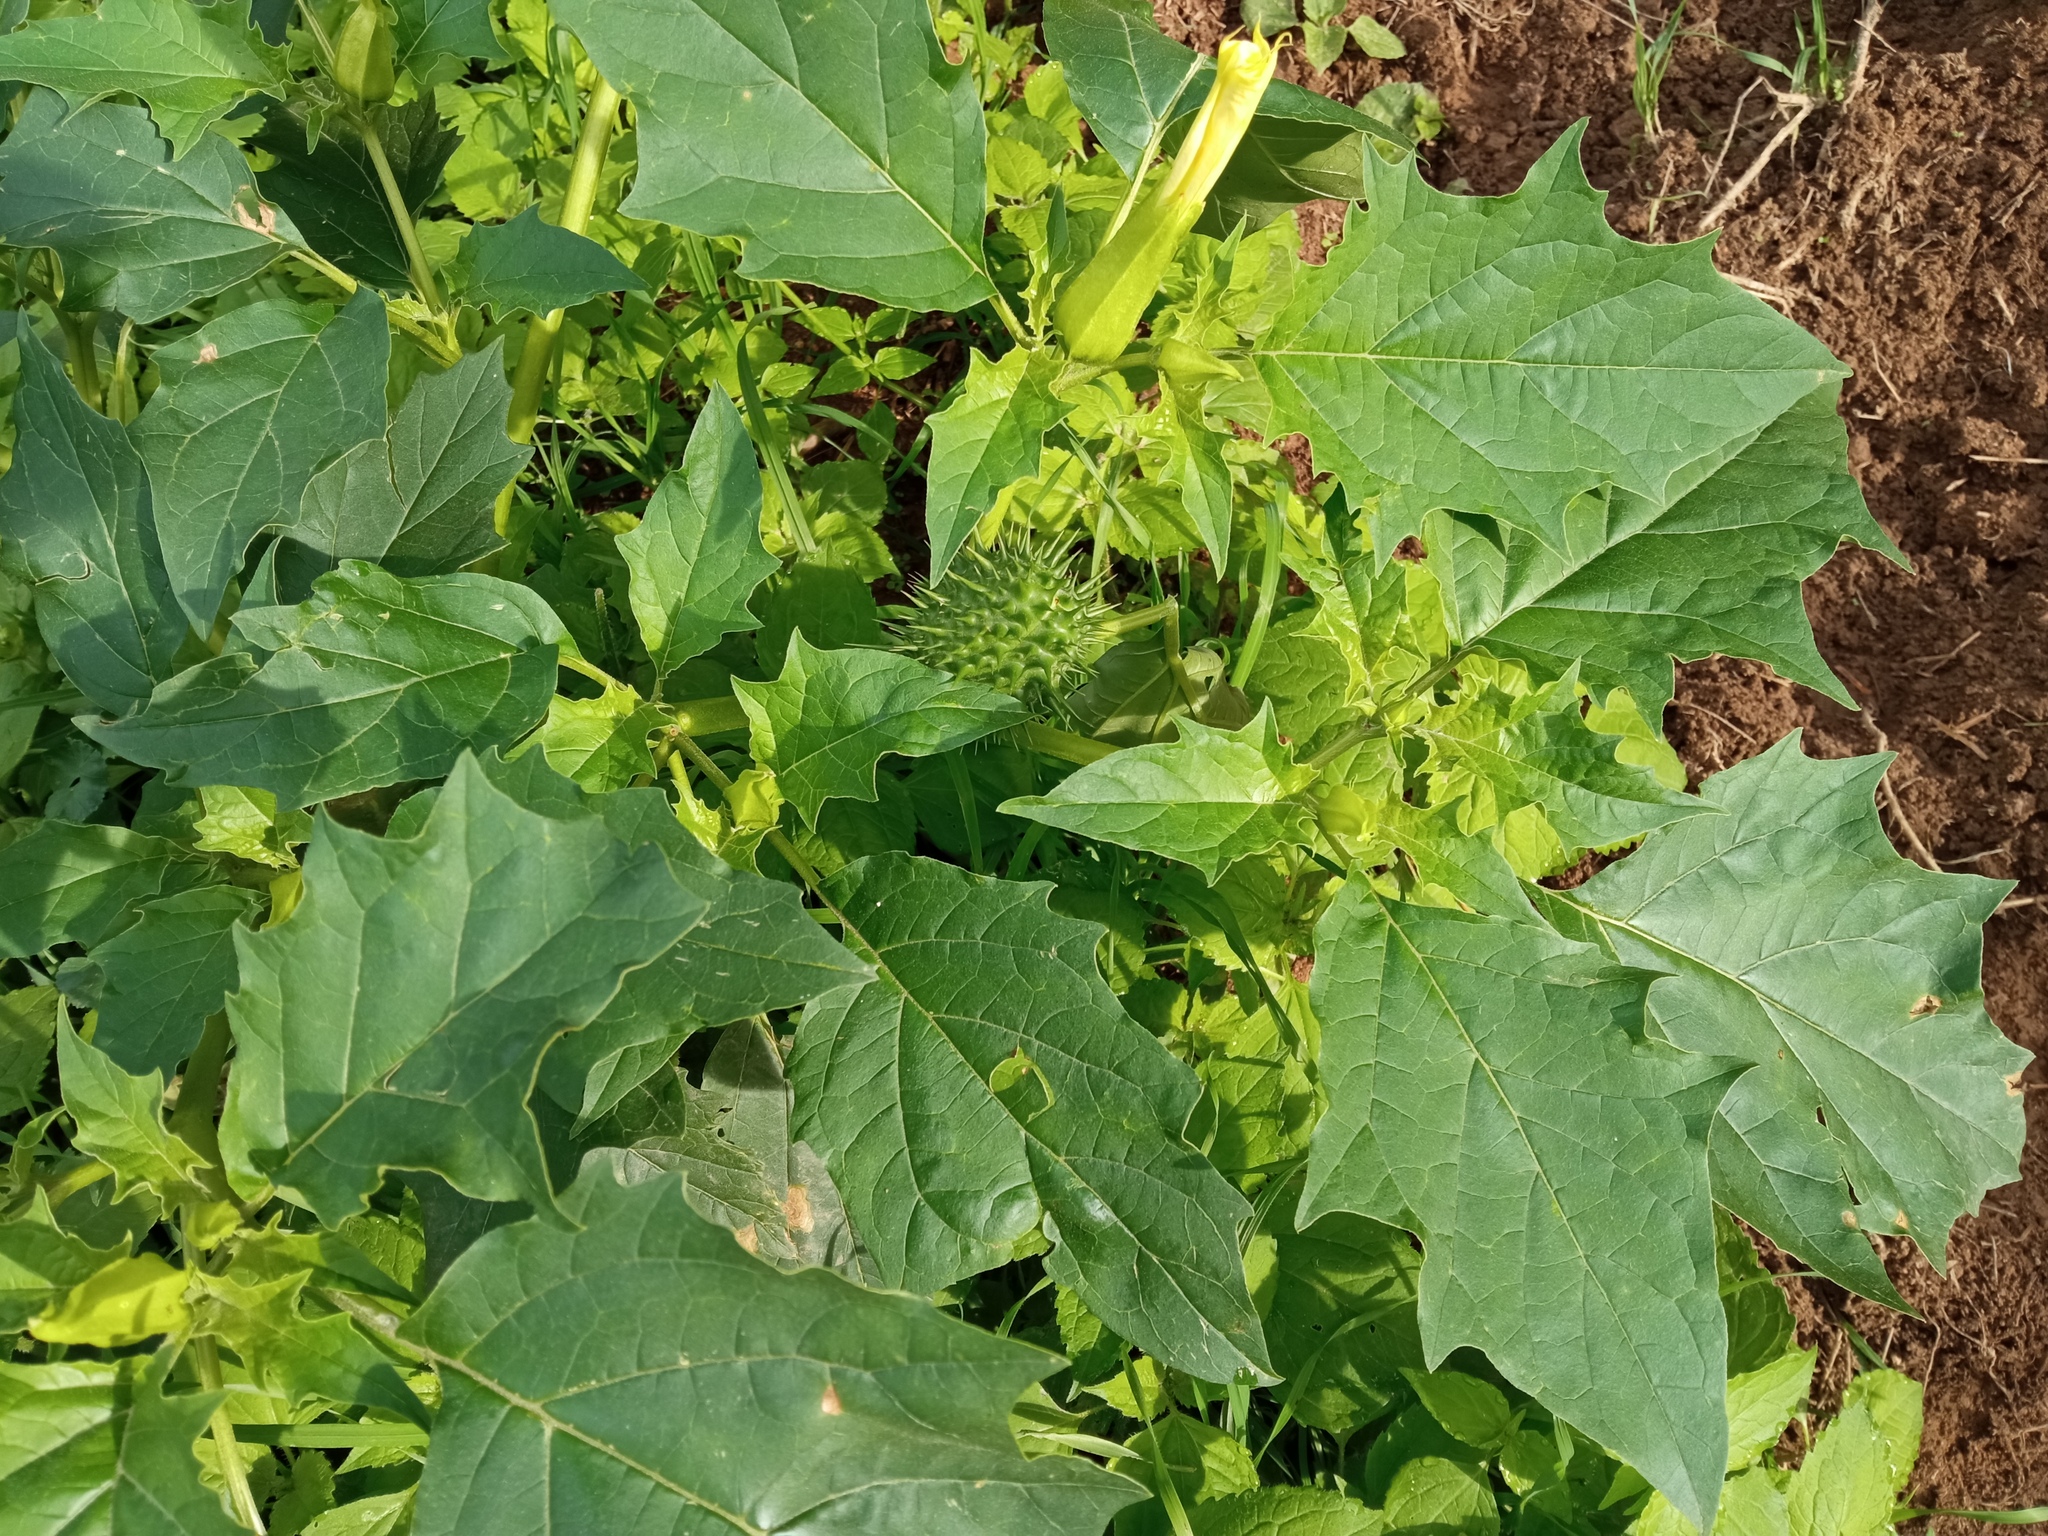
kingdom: Plantae
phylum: Tracheophyta
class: Magnoliopsida
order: Solanales
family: Solanaceae
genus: Datura
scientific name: Datura stramonium
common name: Thorn-apple
